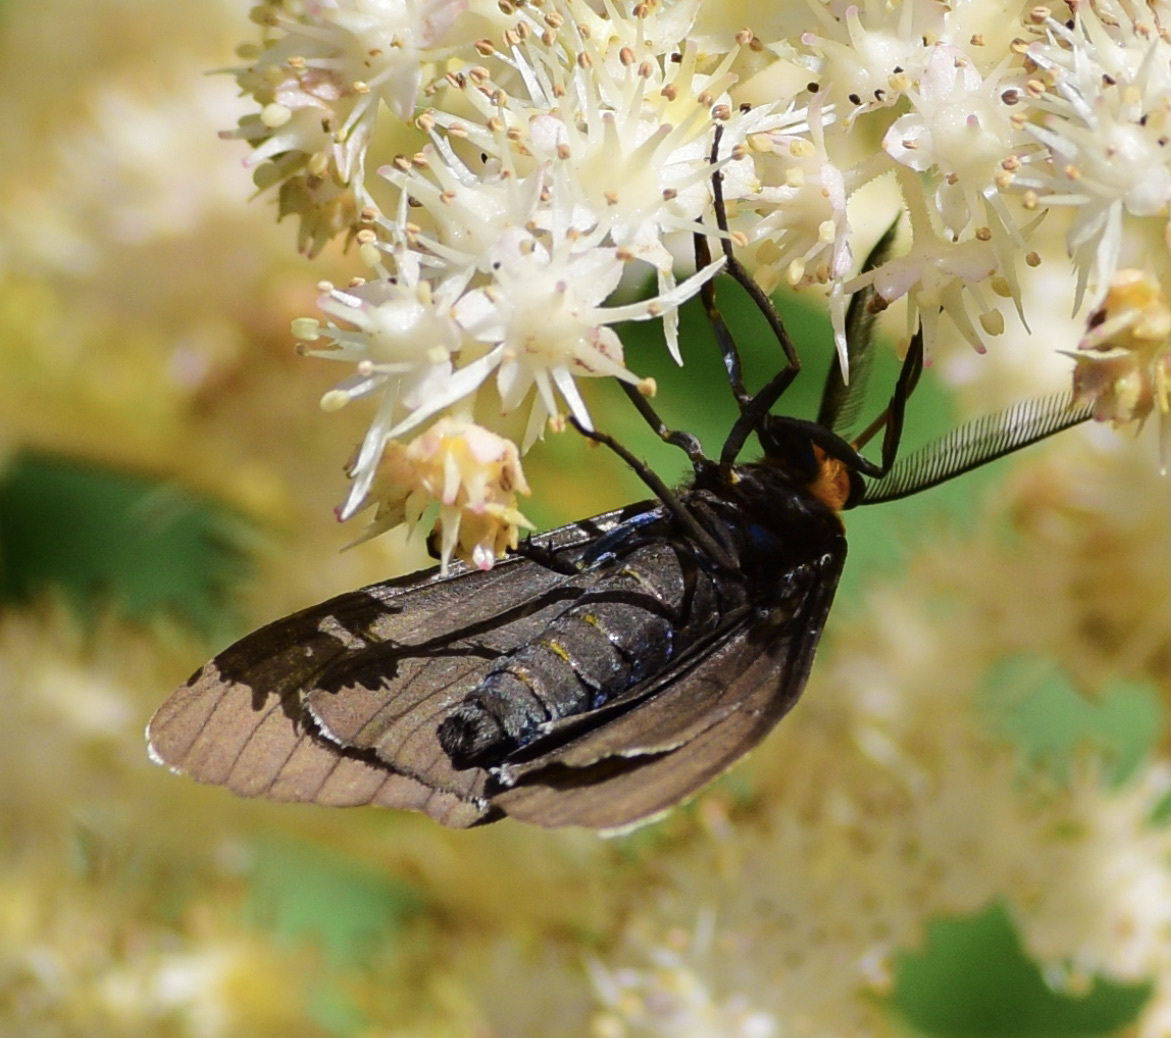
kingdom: Animalia
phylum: Arthropoda
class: Insecta
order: Lepidoptera
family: Erebidae
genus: Ctenucha
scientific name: Ctenucha virginica
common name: Virginia ctenucha moth
